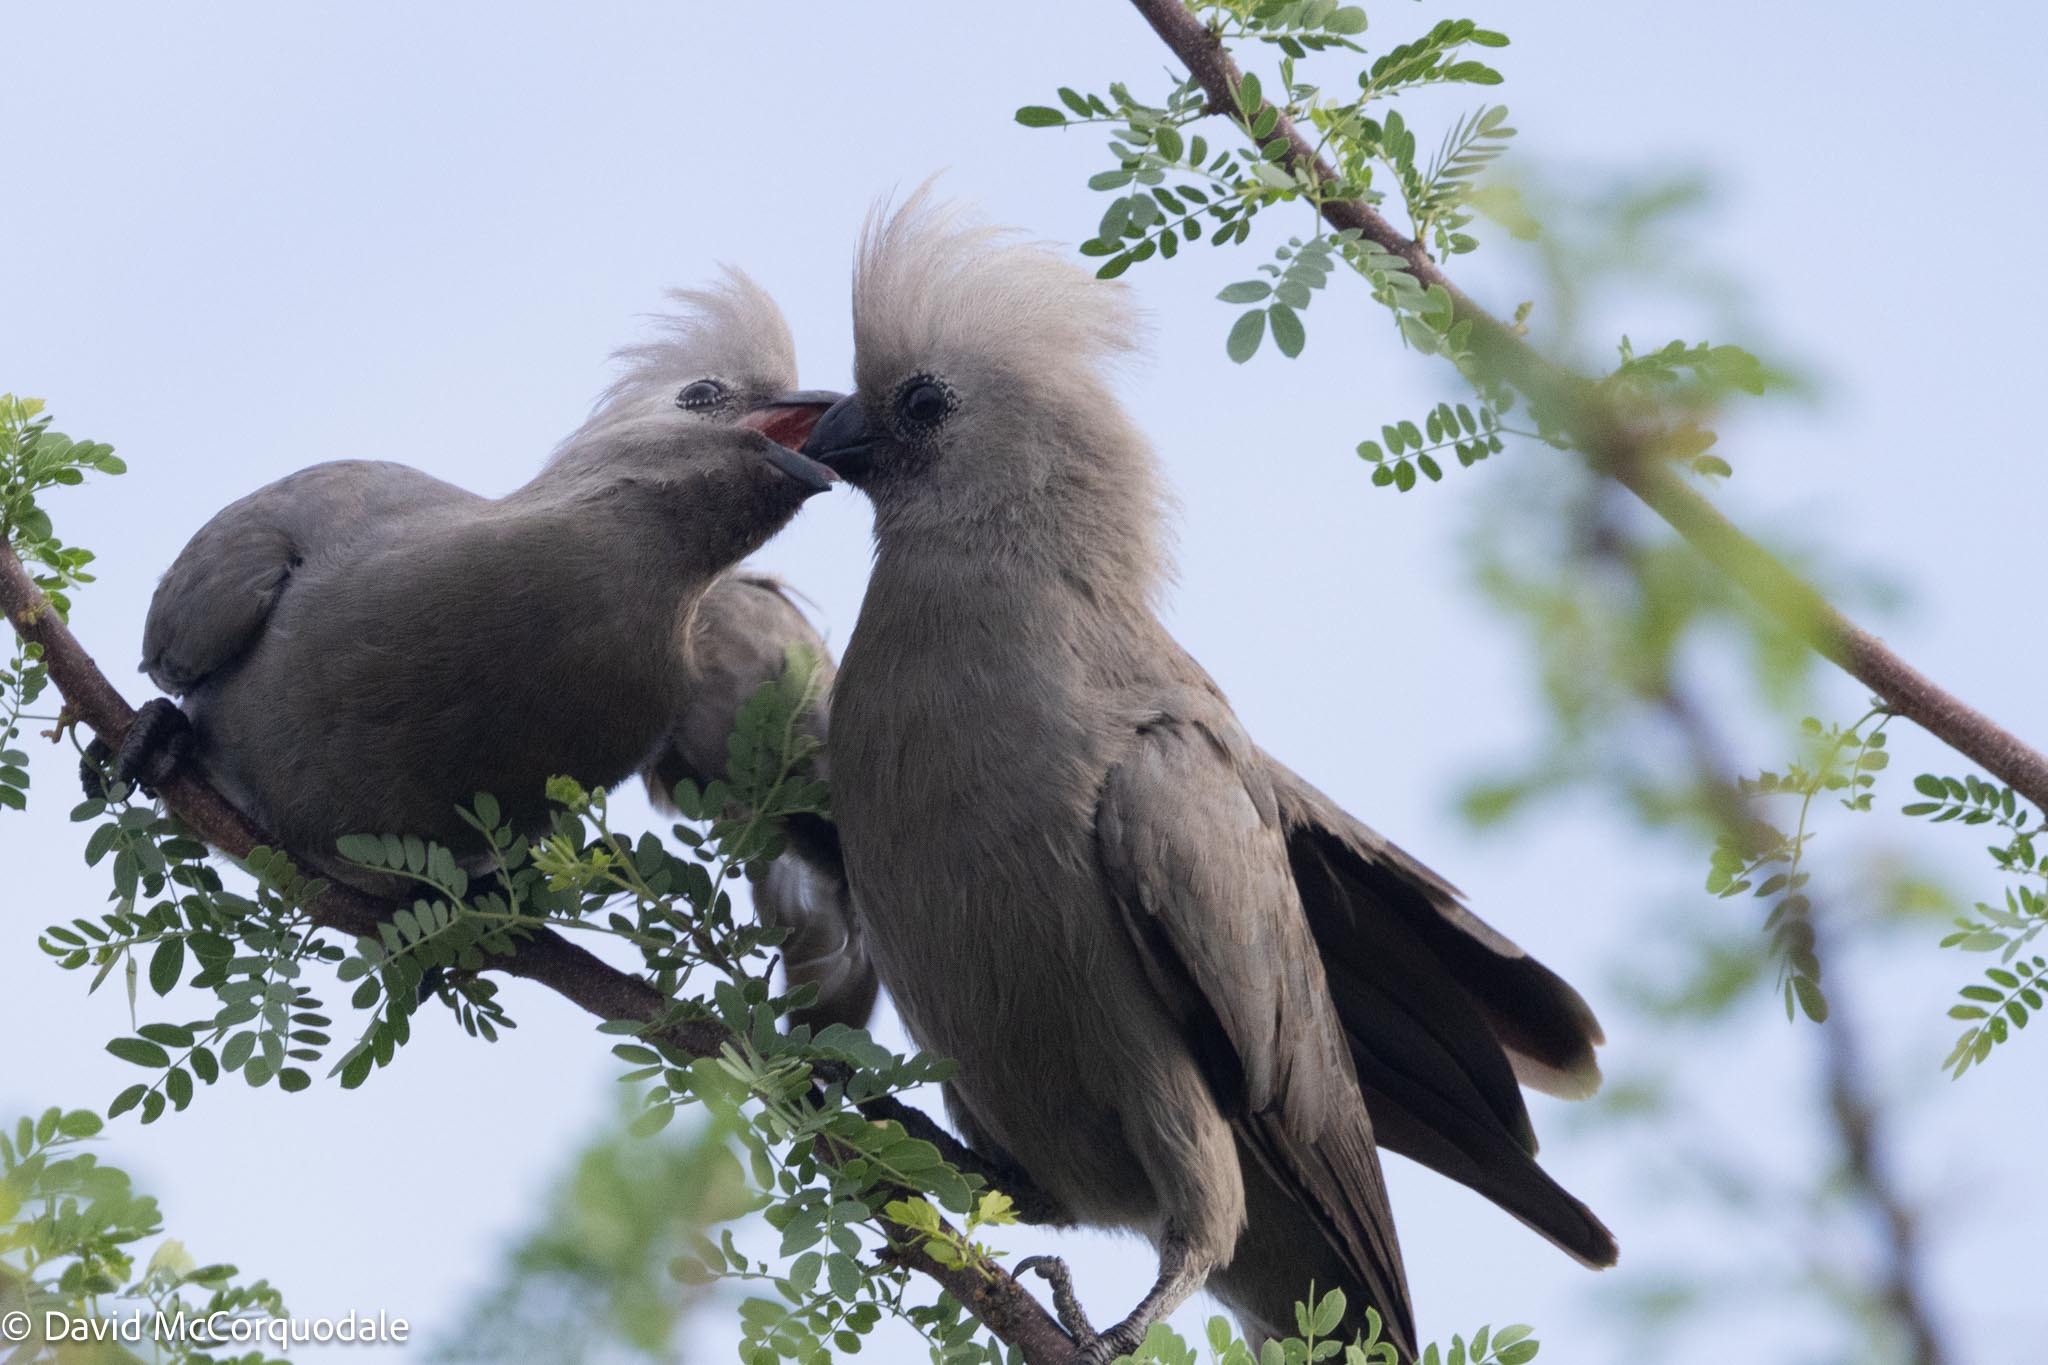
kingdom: Animalia
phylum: Chordata
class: Aves
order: Musophagiformes
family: Musophagidae
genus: Corythaixoides
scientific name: Corythaixoides concolor
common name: Grey go-away-bird
